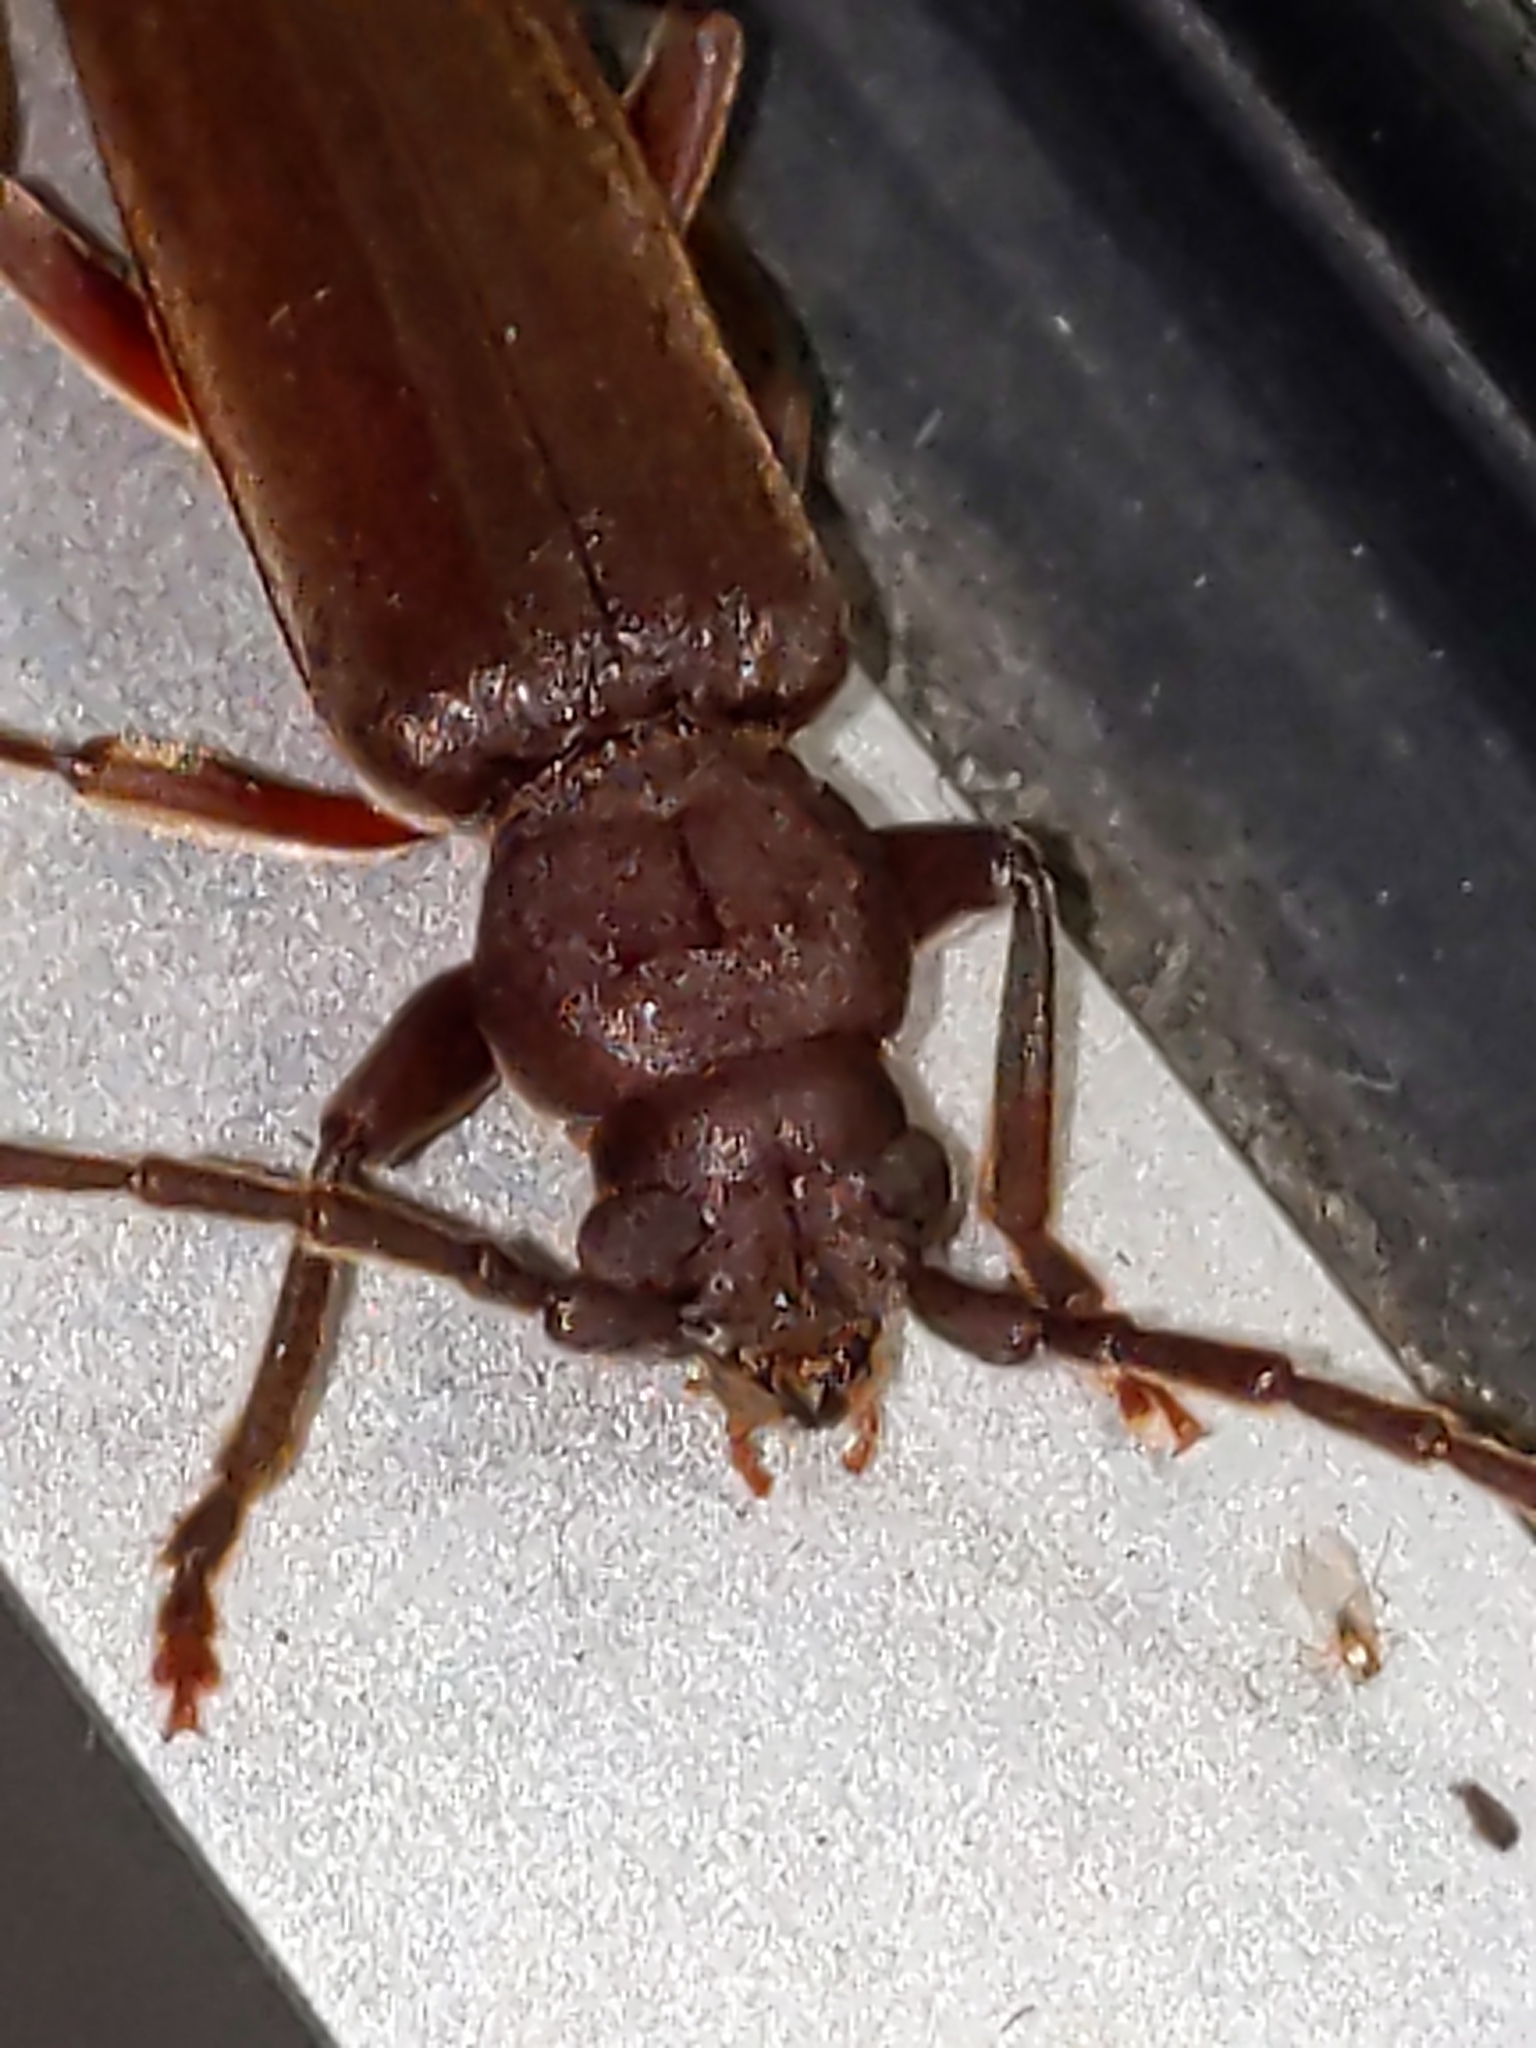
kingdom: Animalia
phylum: Arthropoda
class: Insecta
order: Coleoptera
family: Cerambycidae
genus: Arhopalus
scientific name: Arhopalus rusticus
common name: Rust pine borer
